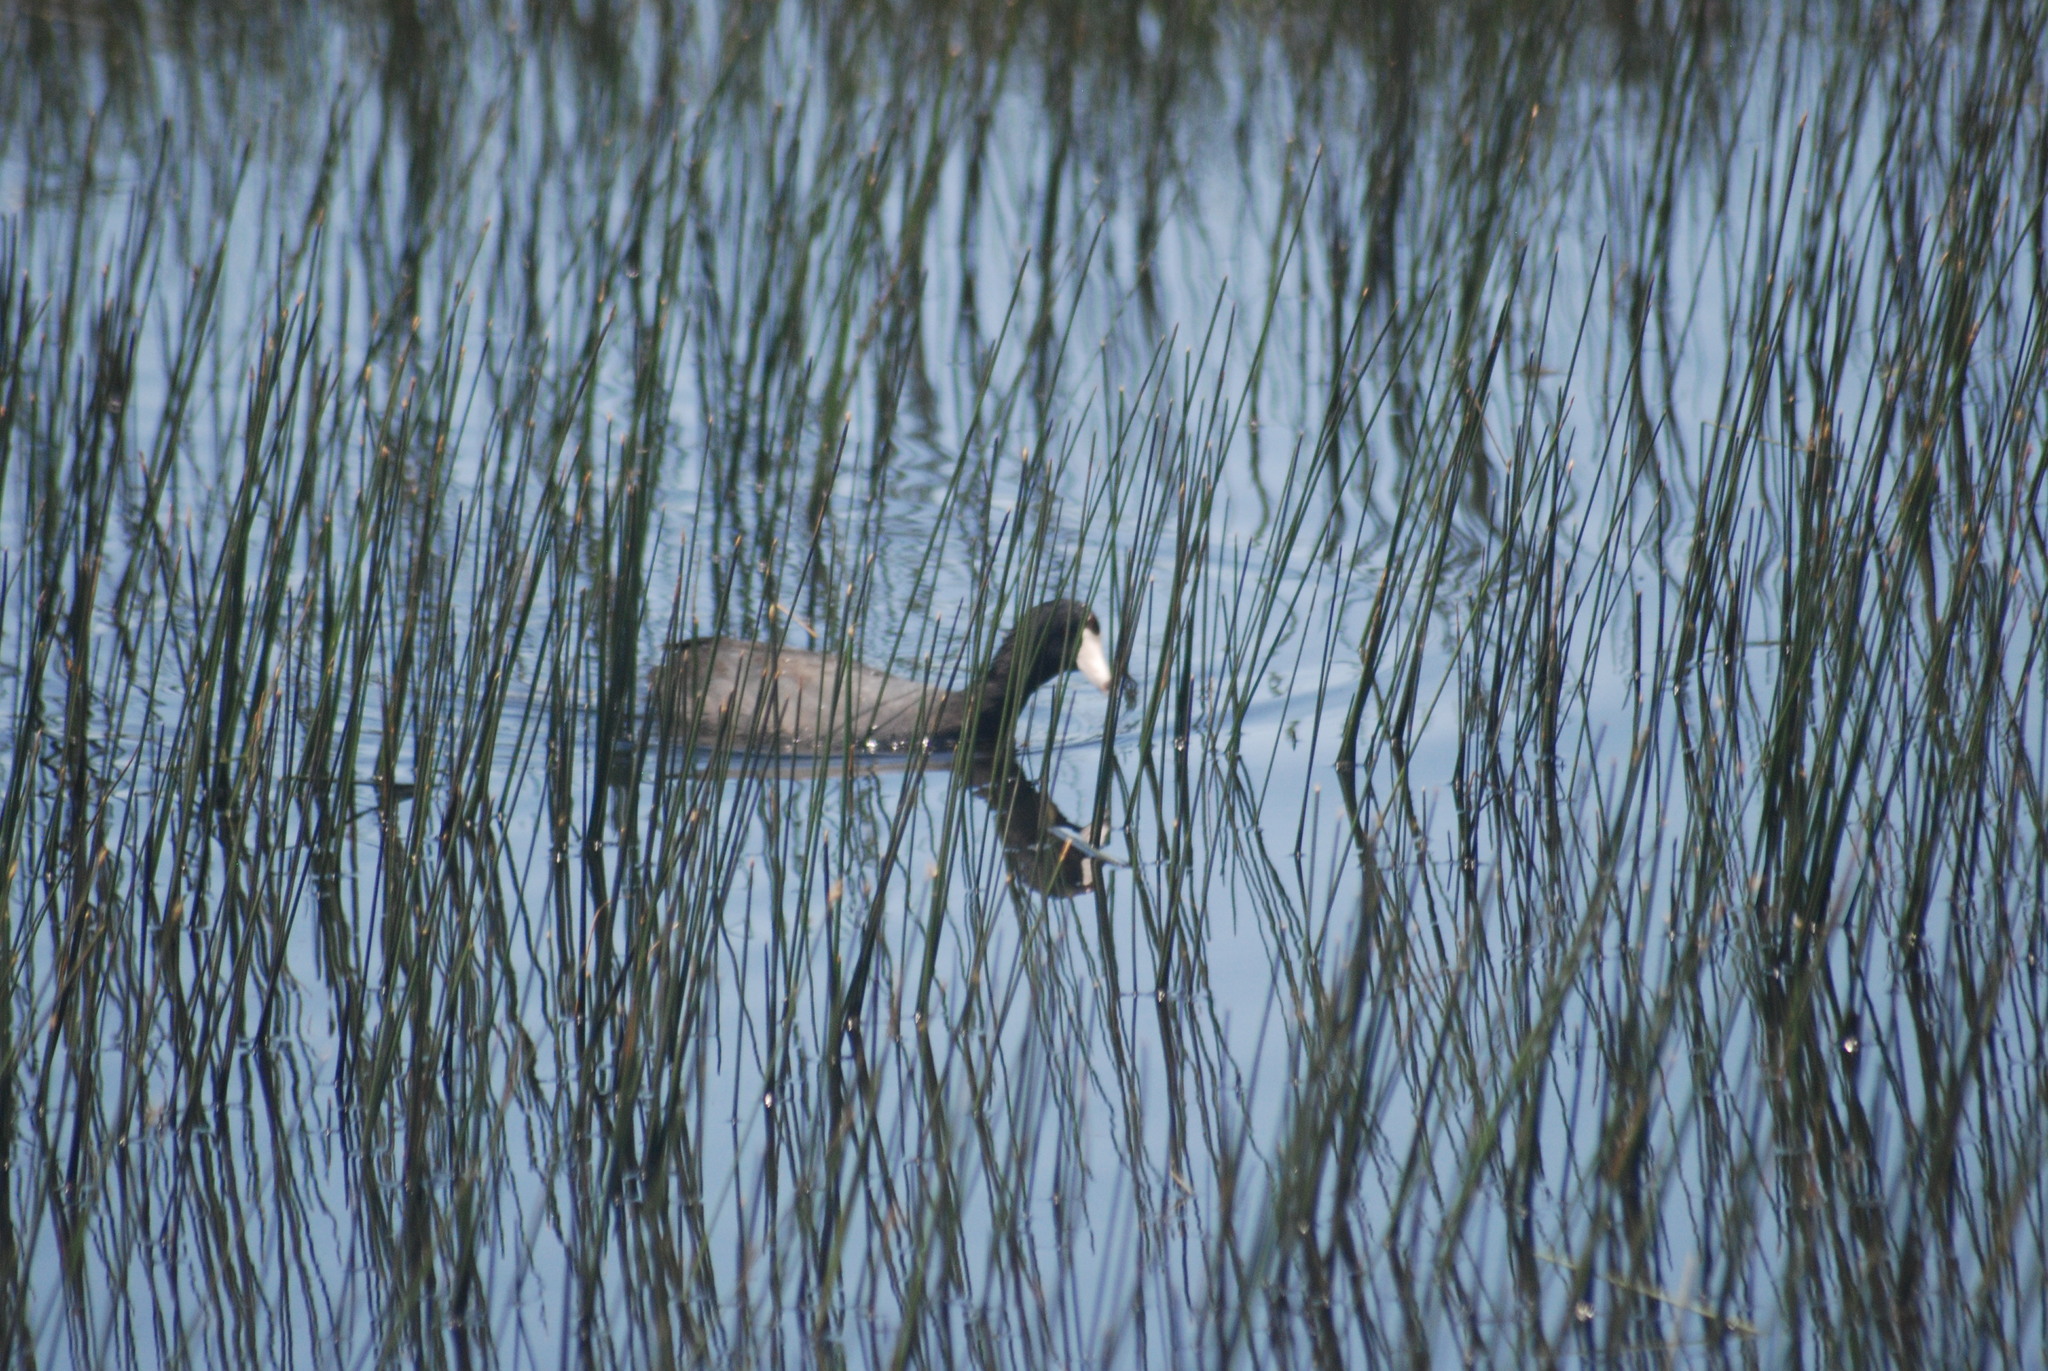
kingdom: Animalia
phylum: Chordata
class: Aves
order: Gruiformes
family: Rallidae
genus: Fulica
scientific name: Fulica americana
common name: American coot
